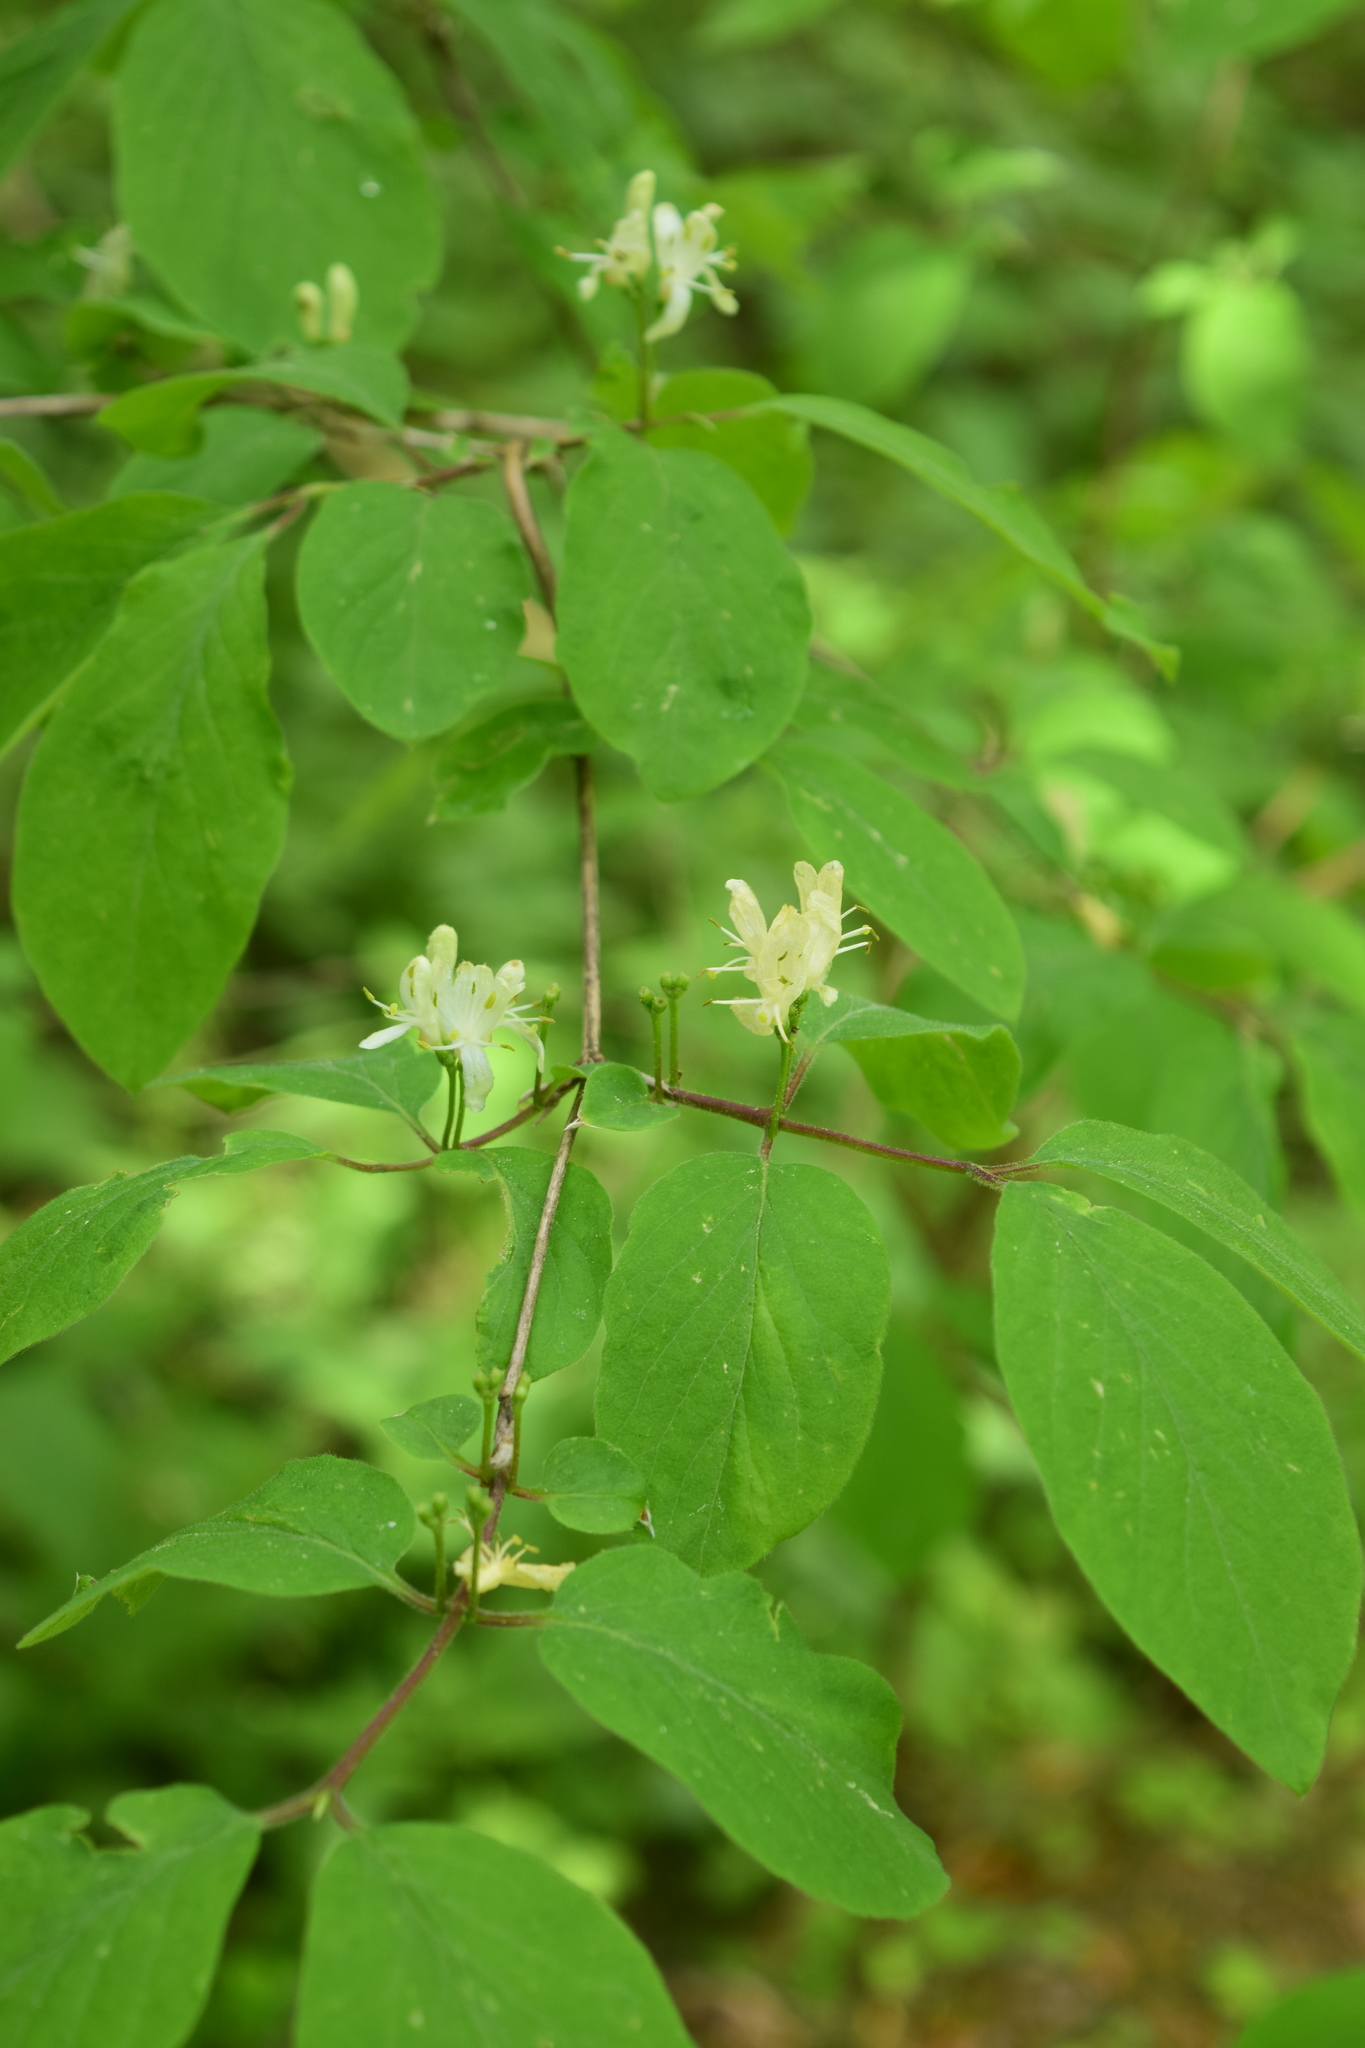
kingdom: Plantae
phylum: Tracheophyta
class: Magnoliopsida
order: Dipsacales
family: Caprifoliaceae
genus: Lonicera
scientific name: Lonicera xylosteum
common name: Fly honeysuckle
